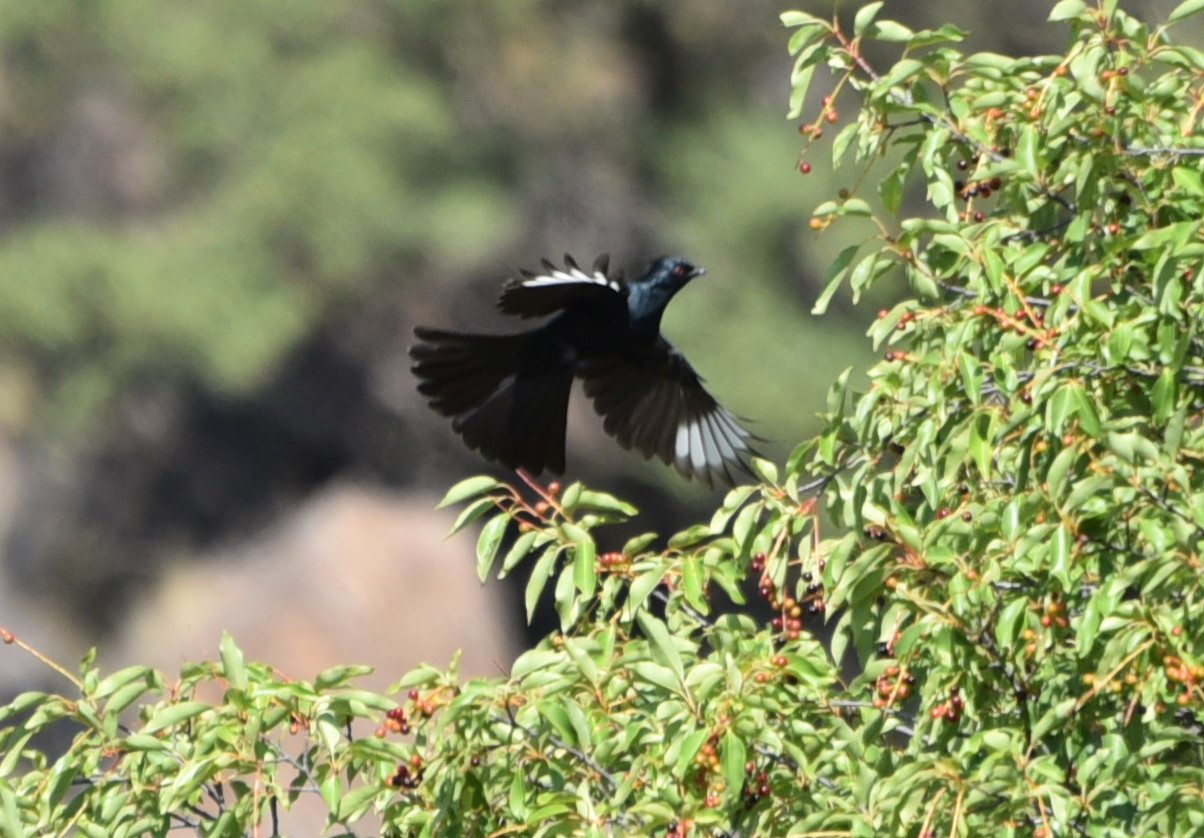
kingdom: Animalia
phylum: Chordata
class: Aves
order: Passeriformes
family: Ptilogonatidae
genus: Phainopepla
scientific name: Phainopepla nitens
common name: Phainopepla
